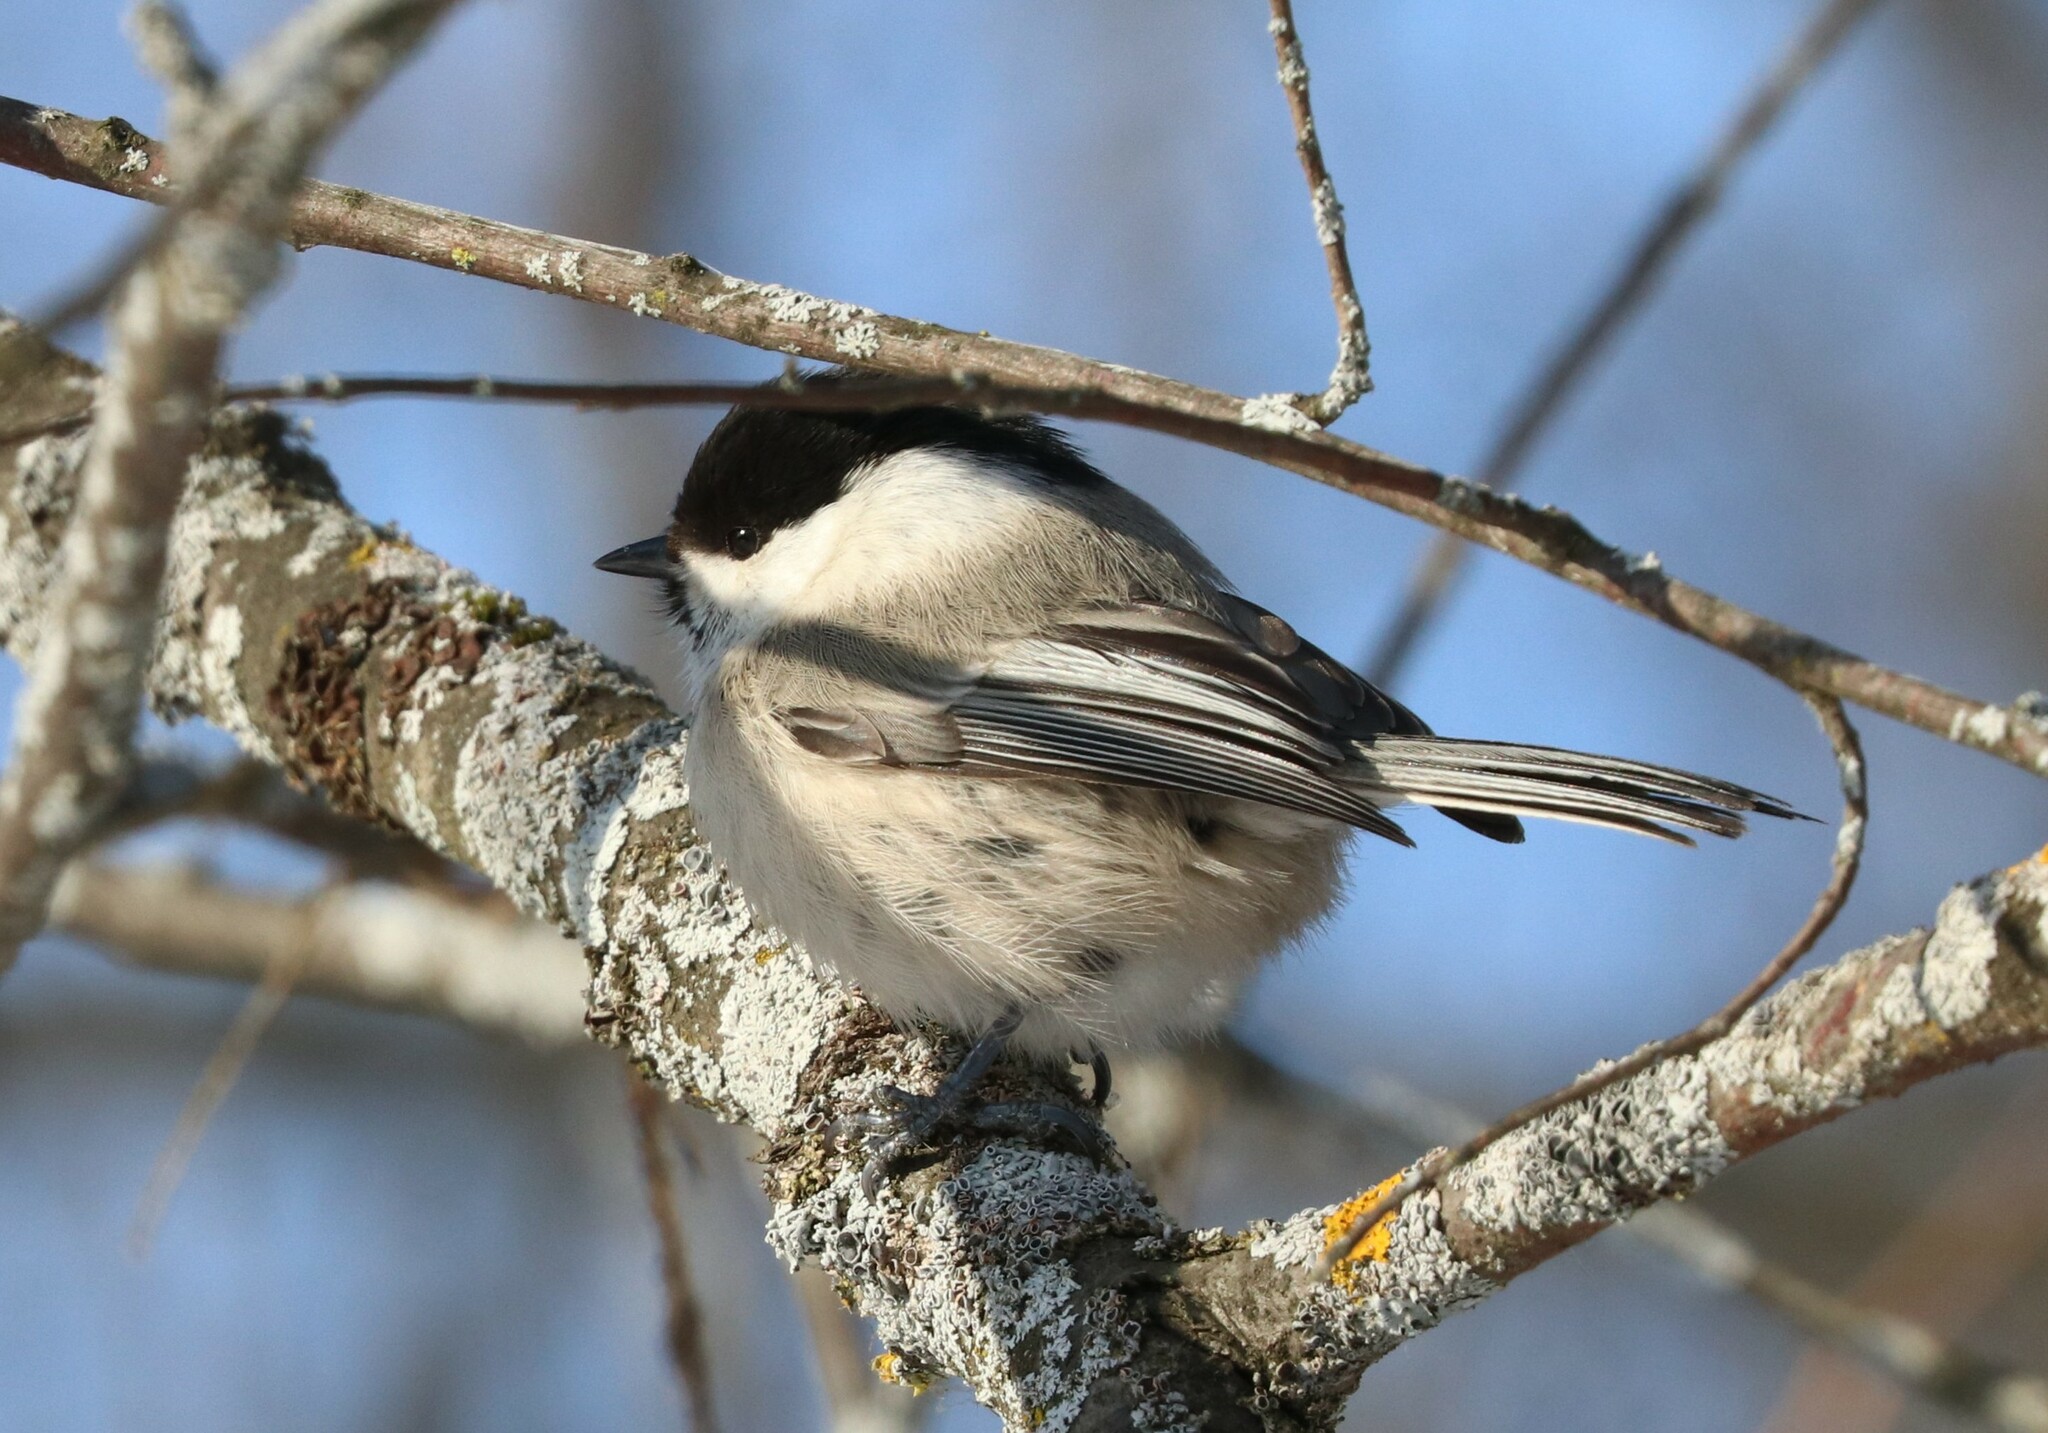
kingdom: Animalia
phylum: Chordata
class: Aves
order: Passeriformes
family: Paridae
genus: Poecile
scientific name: Poecile montanus
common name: Willow tit
